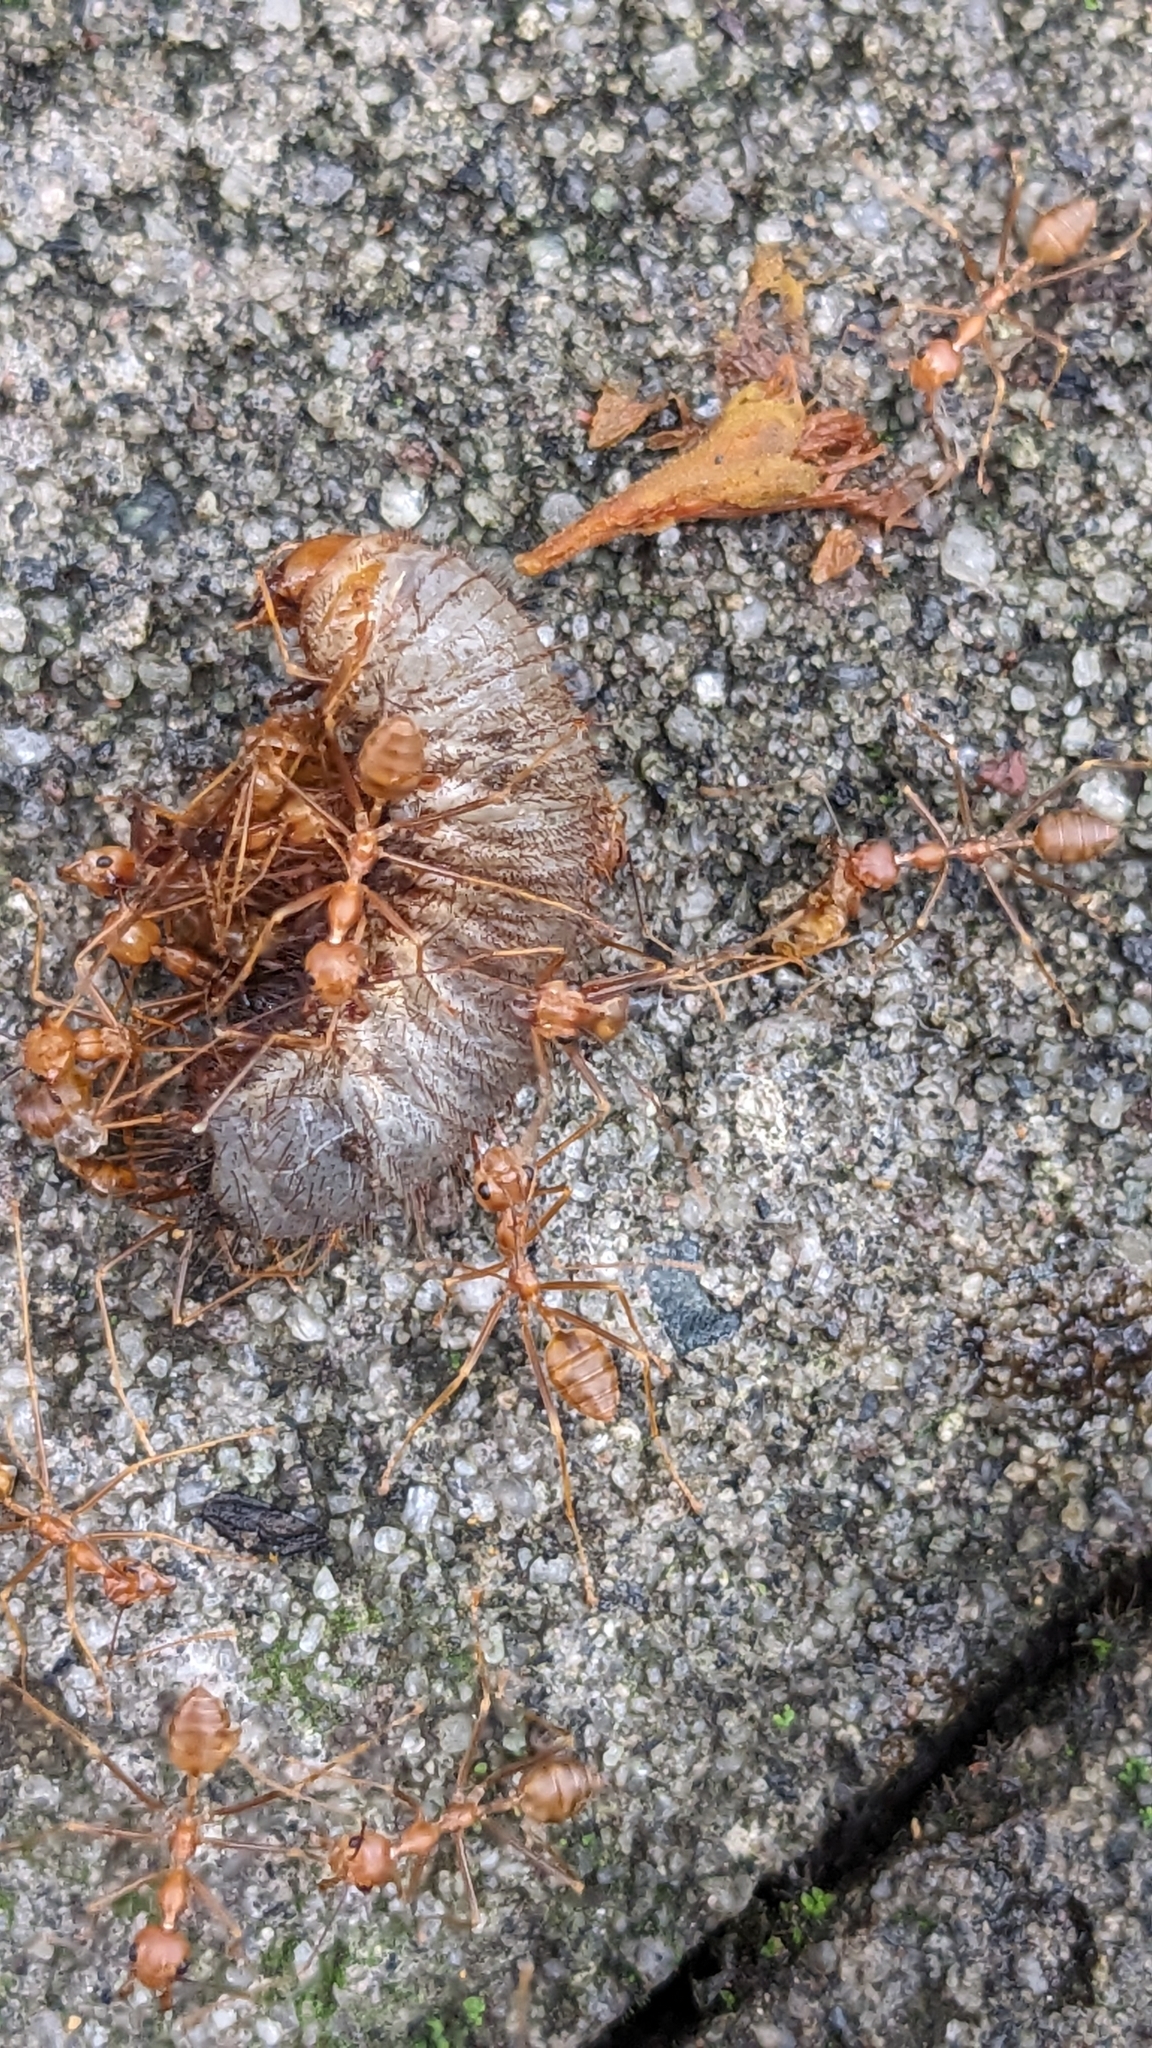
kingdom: Animalia
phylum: Arthropoda
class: Insecta
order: Hymenoptera
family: Formicidae
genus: Oecophylla
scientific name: Oecophylla smaragdina
